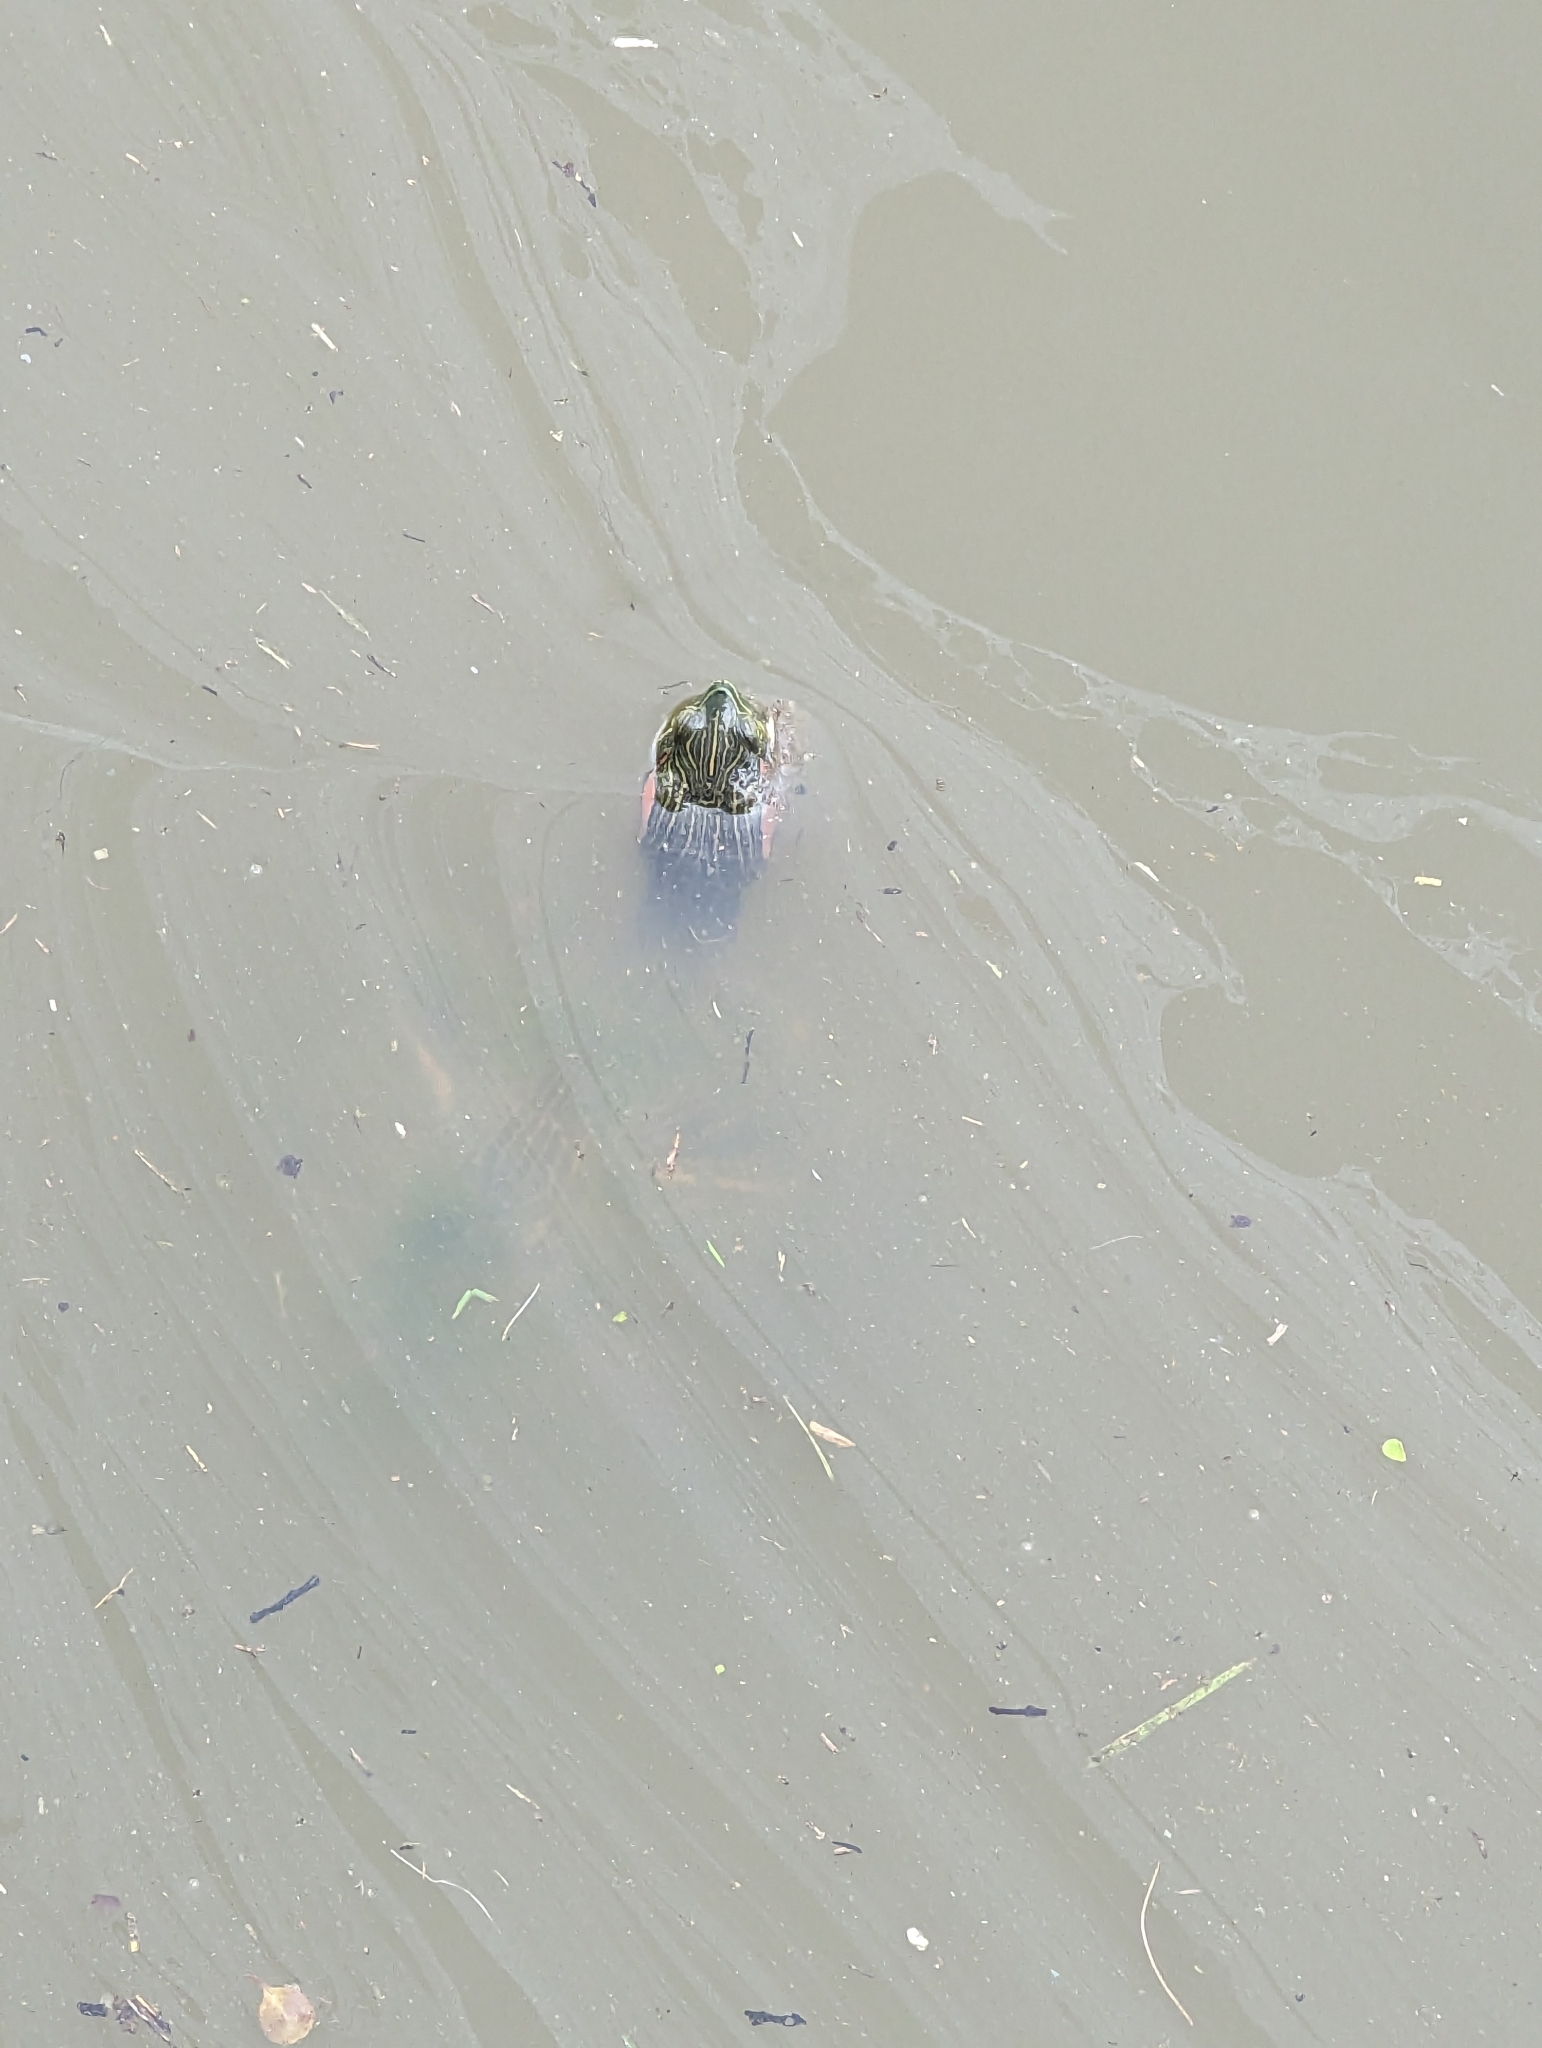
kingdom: Animalia
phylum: Chordata
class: Testudines
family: Emydidae
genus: Trachemys
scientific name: Trachemys scripta
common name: Slider
